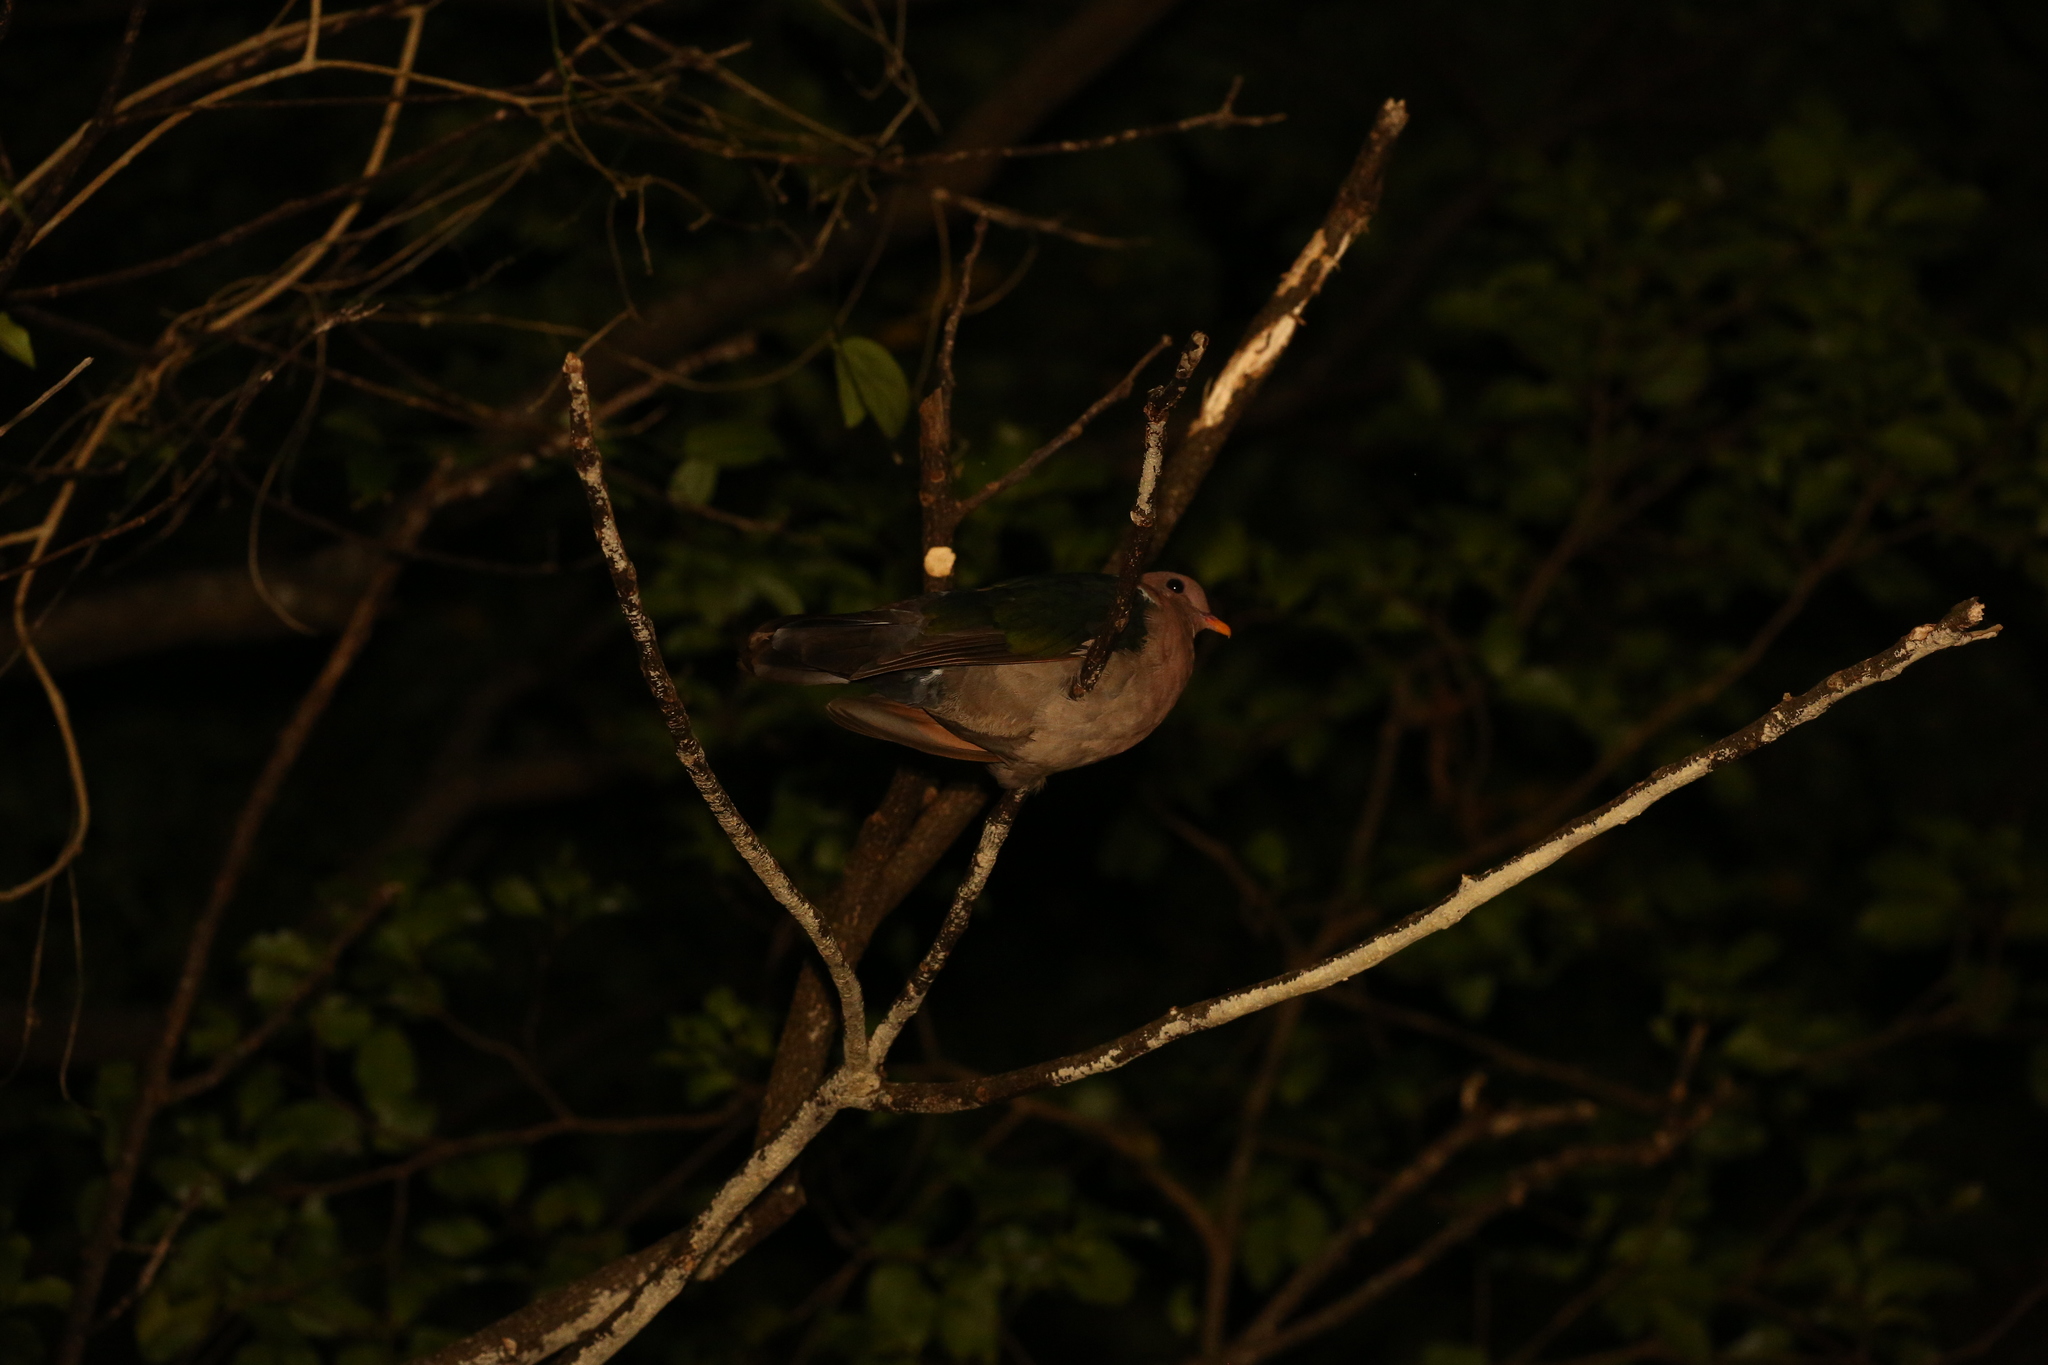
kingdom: Animalia
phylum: Chordata
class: Aves
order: Columbiformes
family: Columbidae
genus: Chalcophaps
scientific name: Chalcophaps longirostris
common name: Pacific emerald dove
